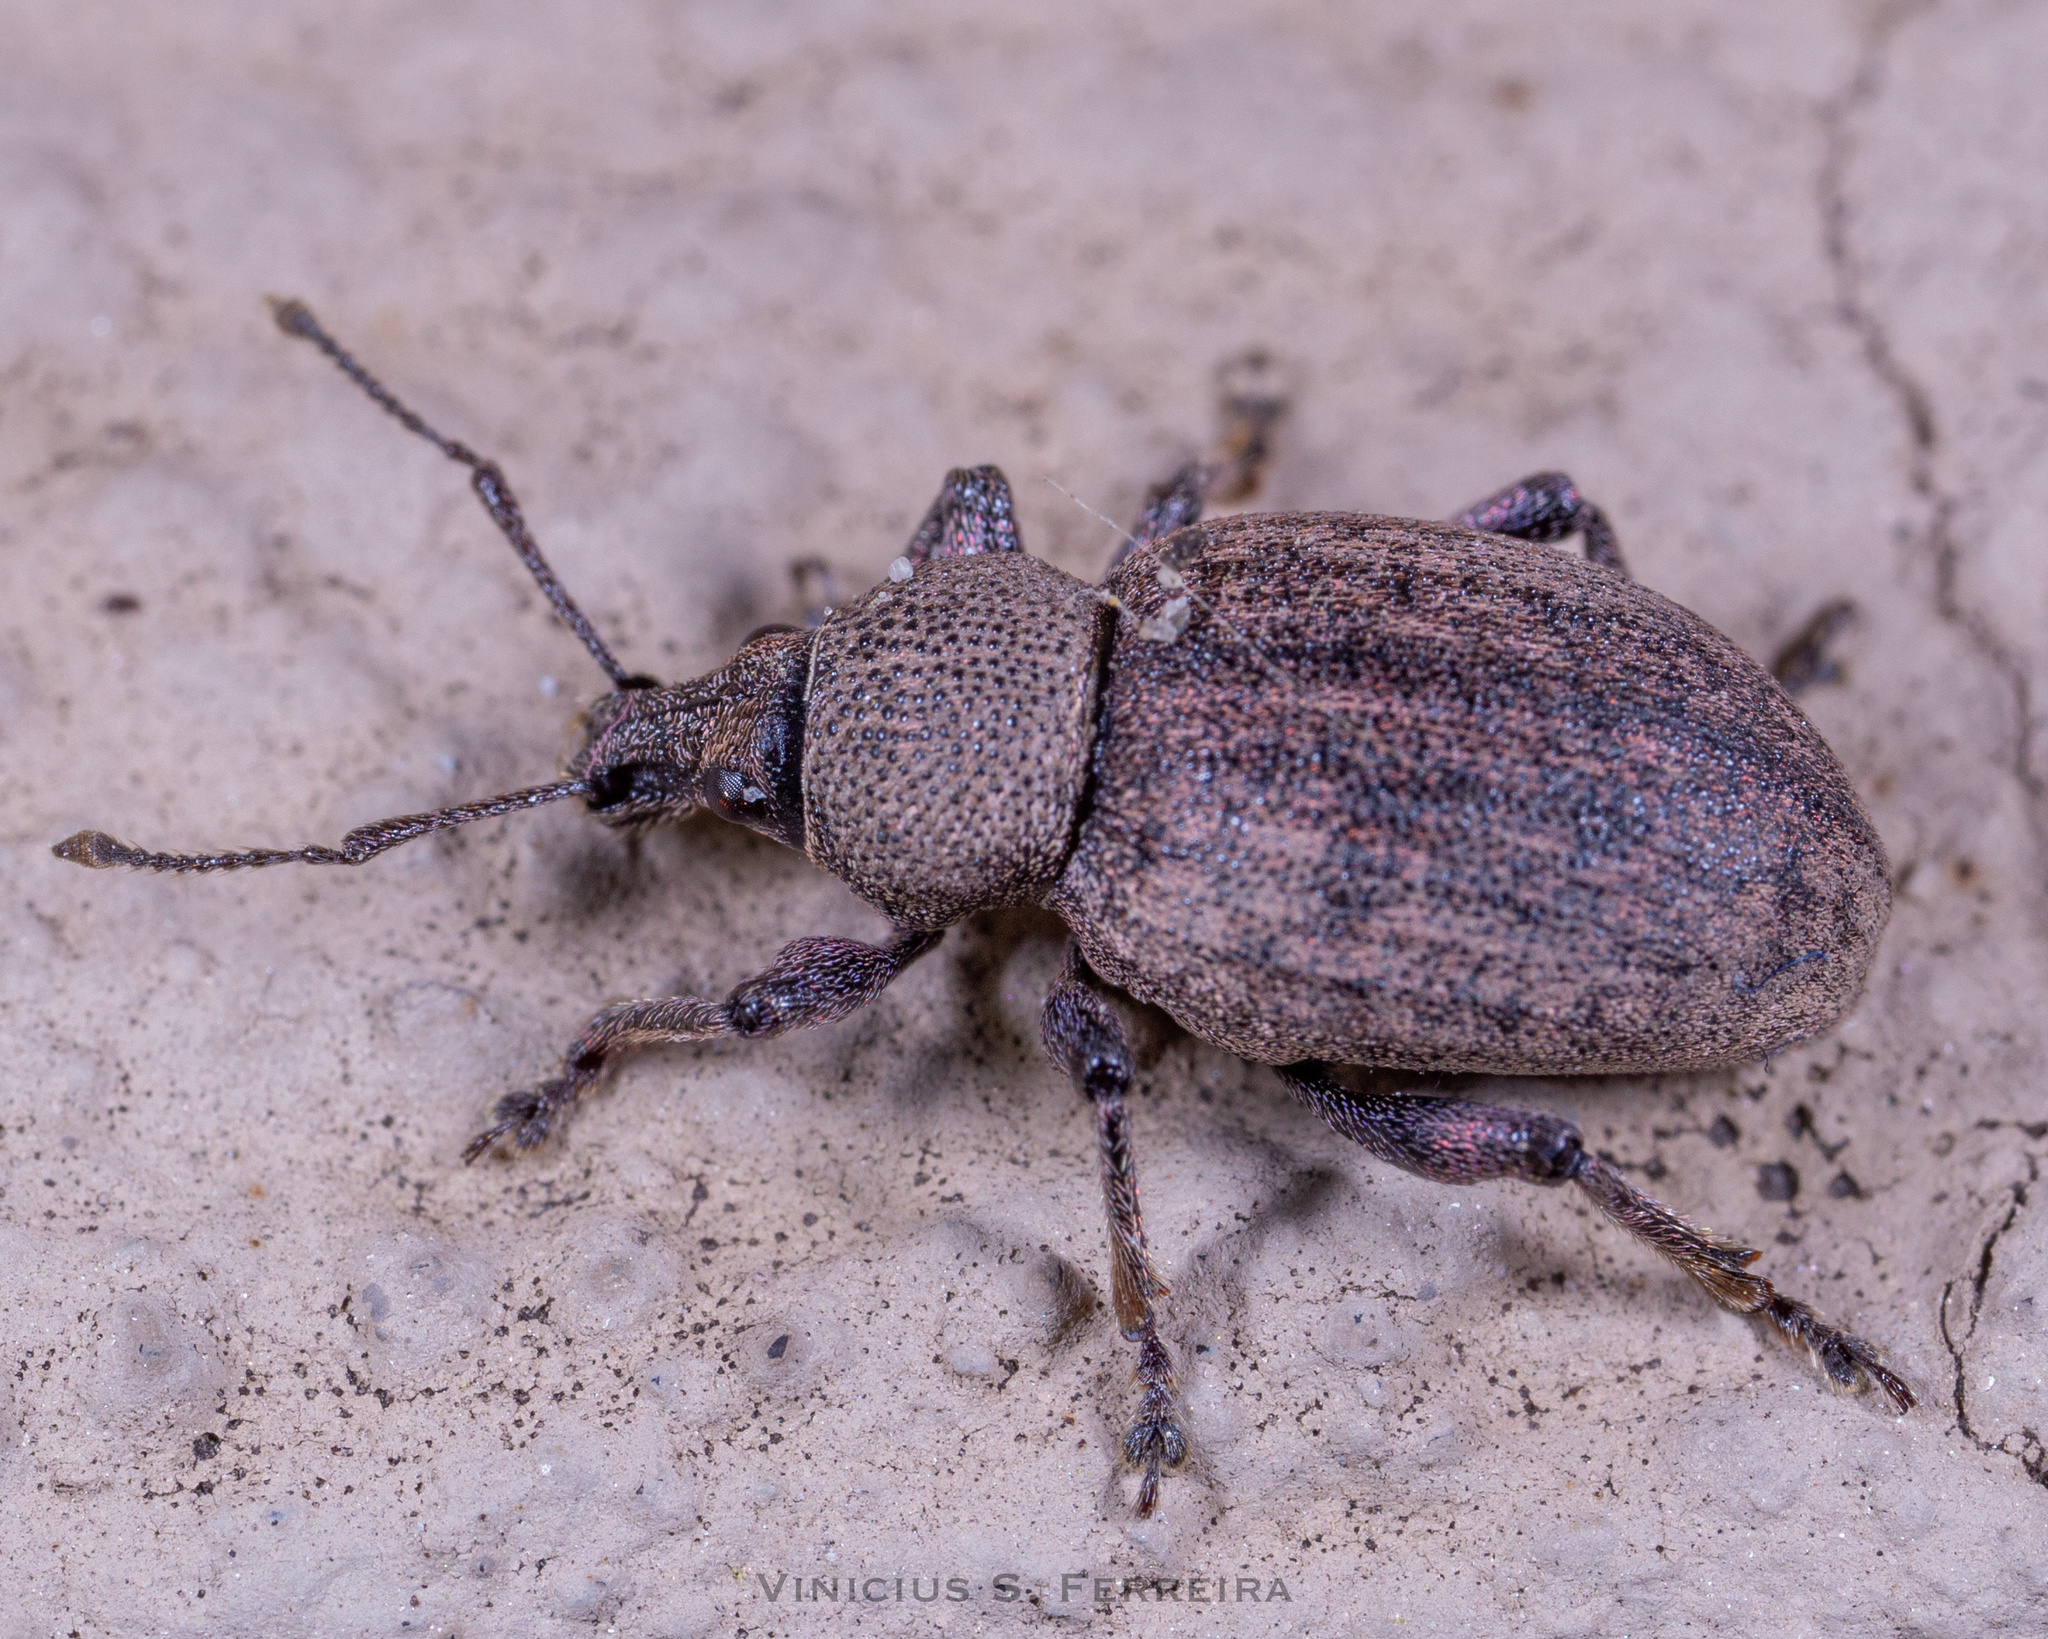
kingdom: Animalia
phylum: Arthropoda
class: Insecta
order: Coleoptera
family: Curculionidae
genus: Otiorhynchus
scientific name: Otiorhynchus ligustici
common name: Weevil
